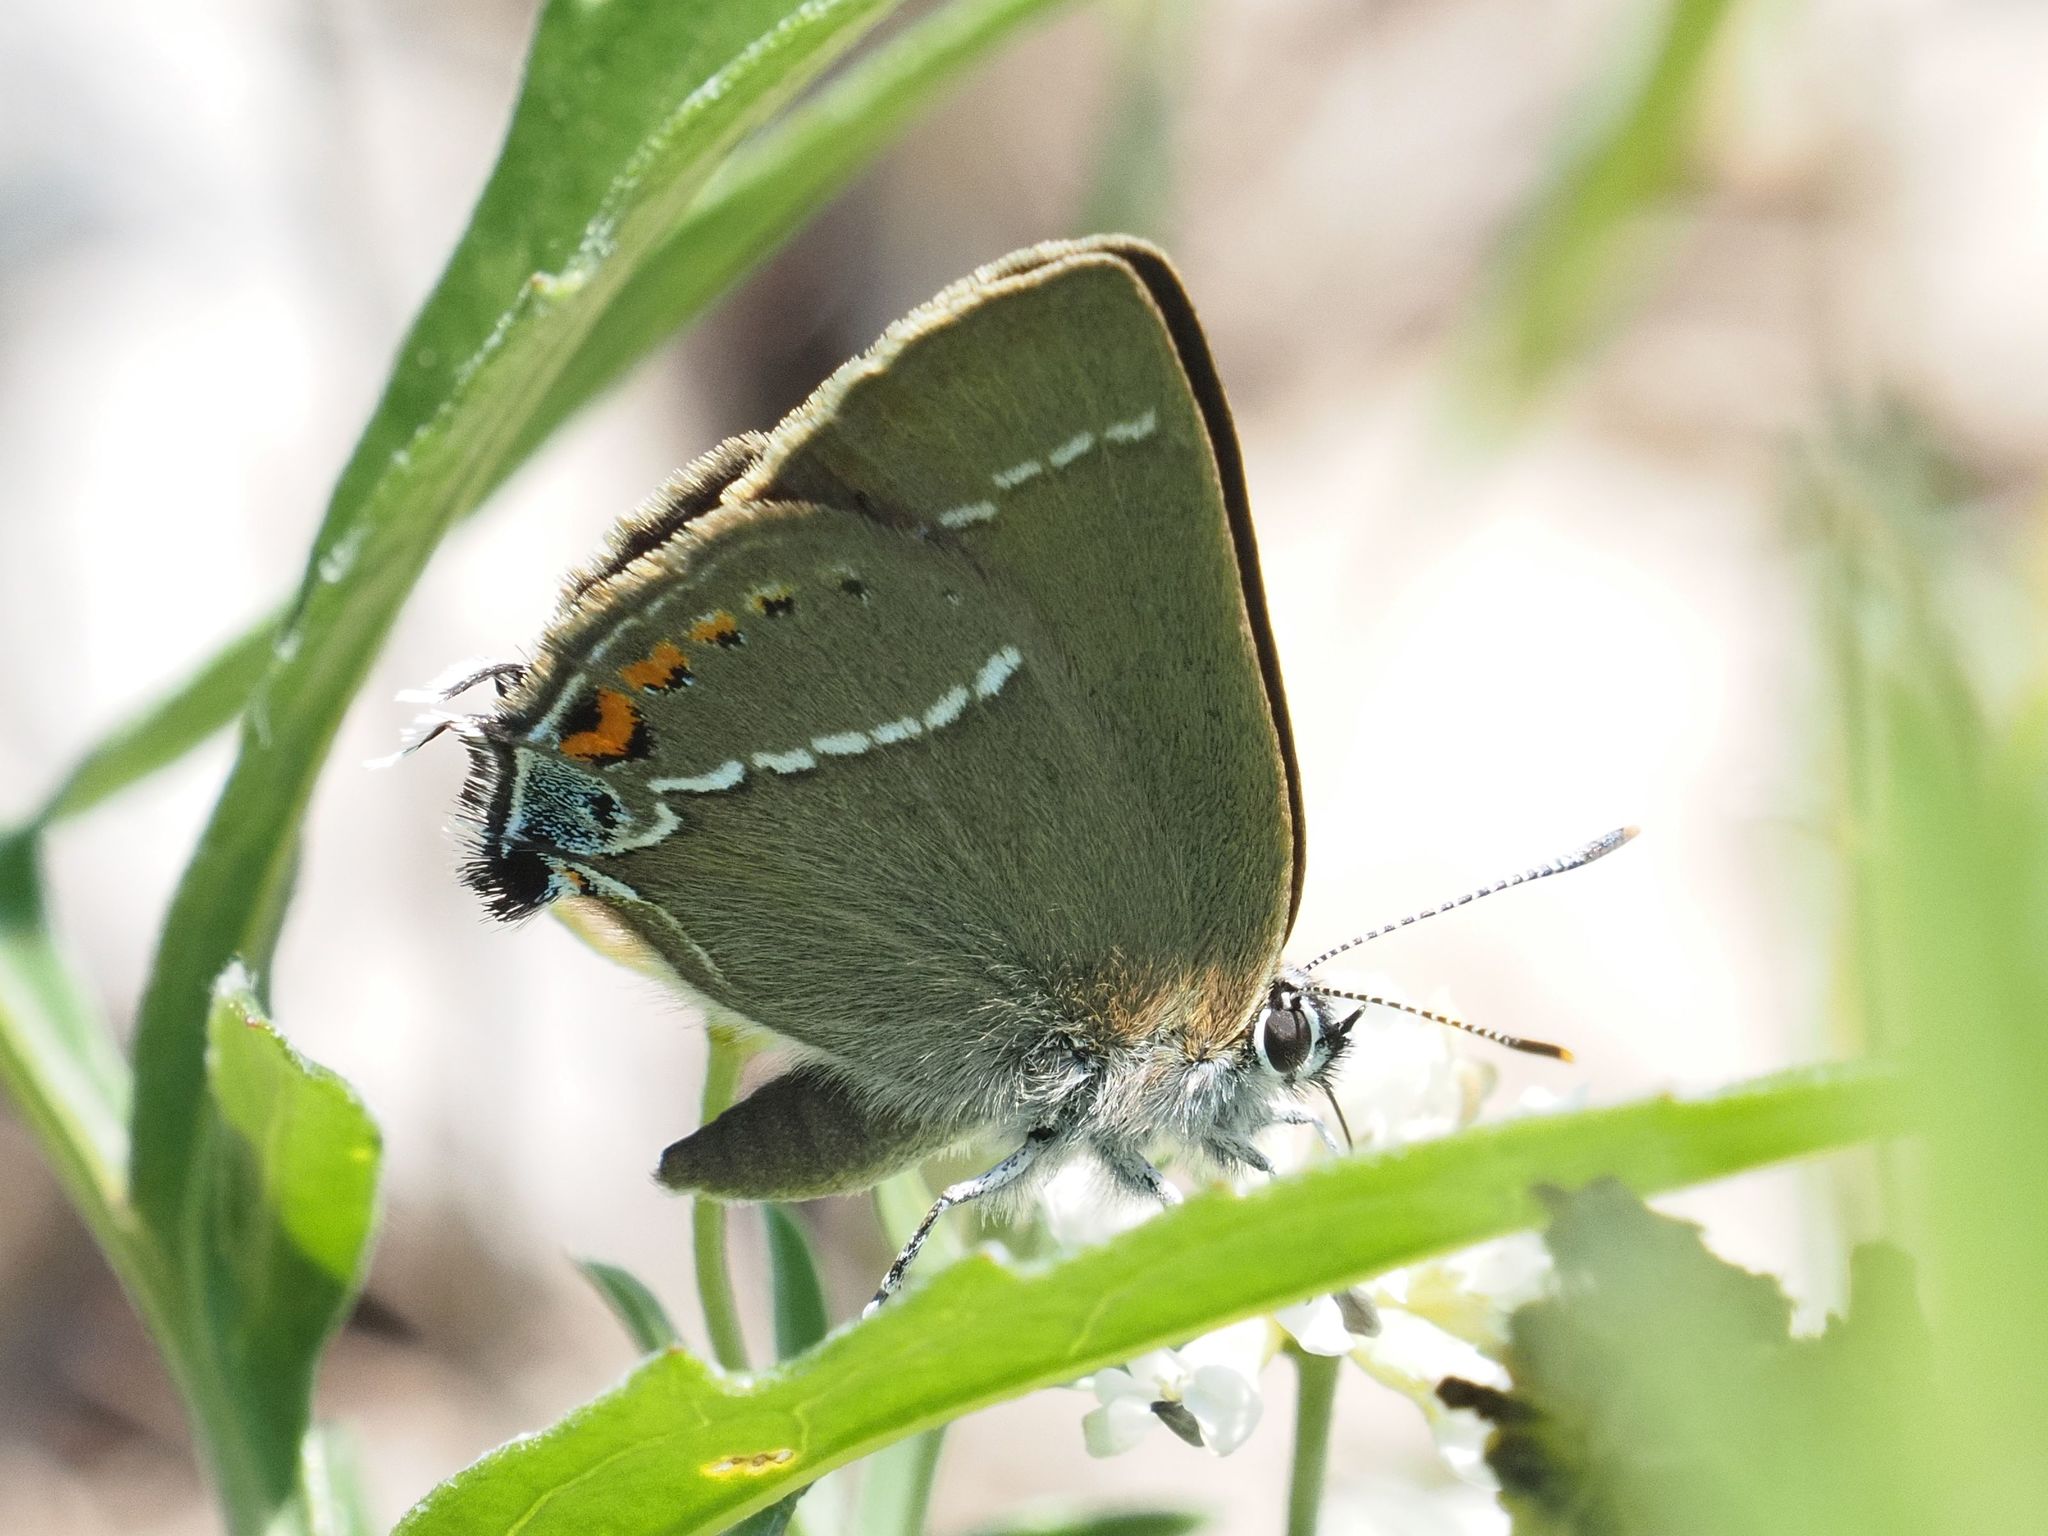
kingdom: Animalia
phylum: Arthropoda
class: Insecta
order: Lepidoptera
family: Lycaenidae
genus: Tuttiola
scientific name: Tuttiola spini
